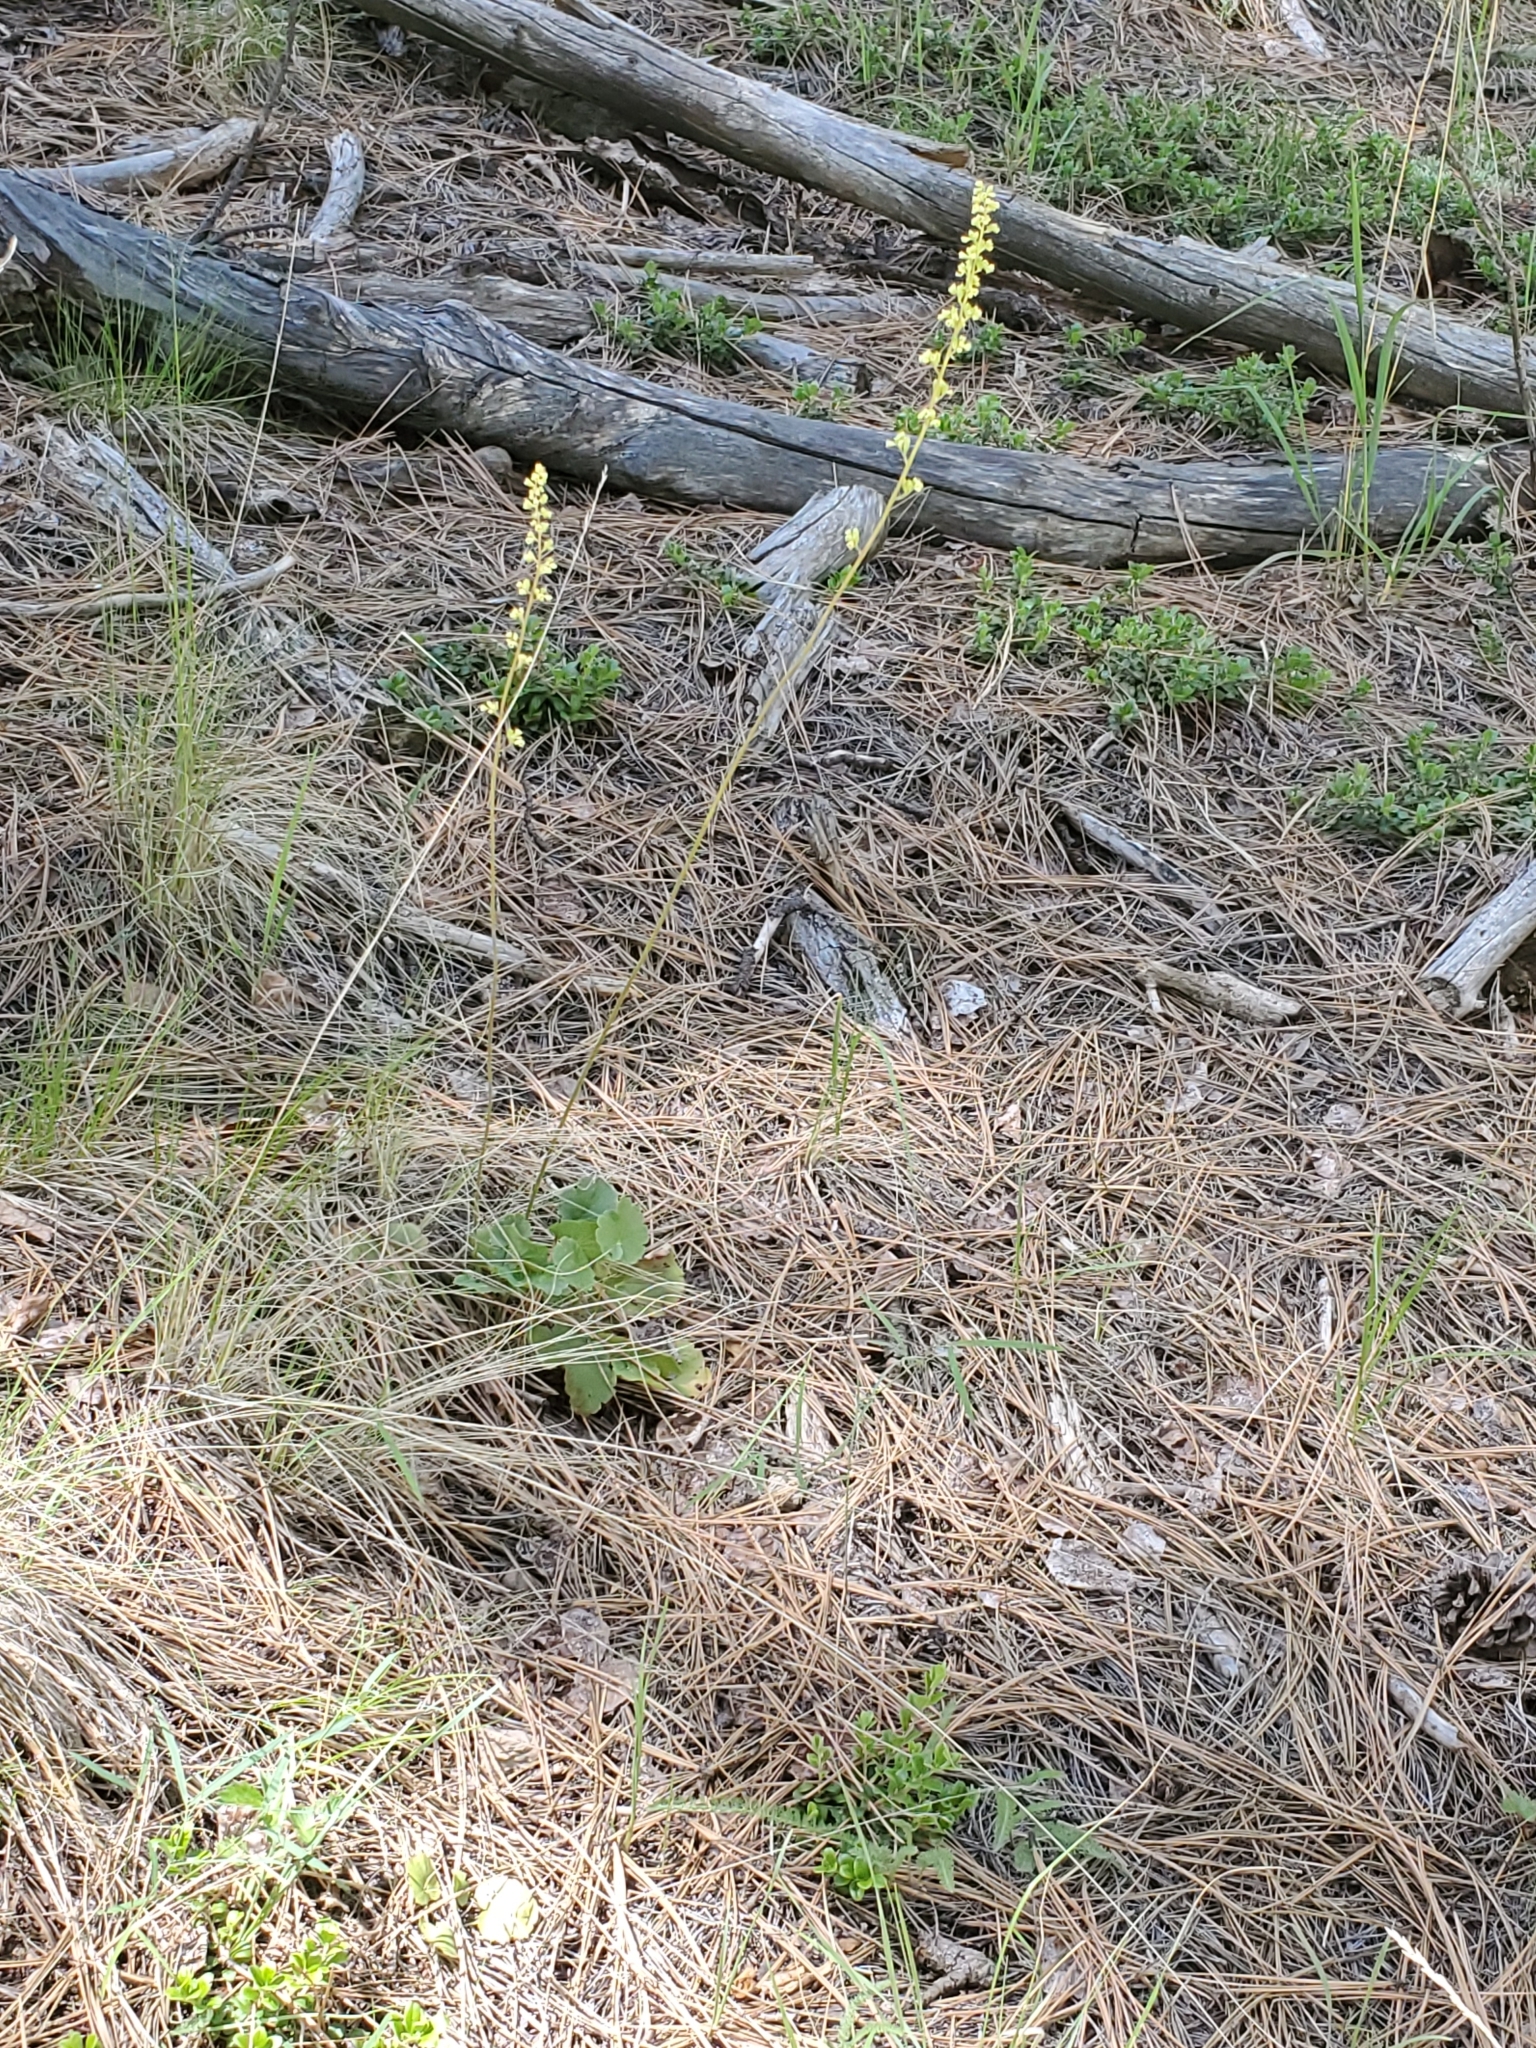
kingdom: Plantae
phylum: Tracheophyta
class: Magnoliopsida
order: Saxifragales
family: Saxifragaceae
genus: Heuchera
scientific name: Heuchera parvifolia
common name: Common alumroot
